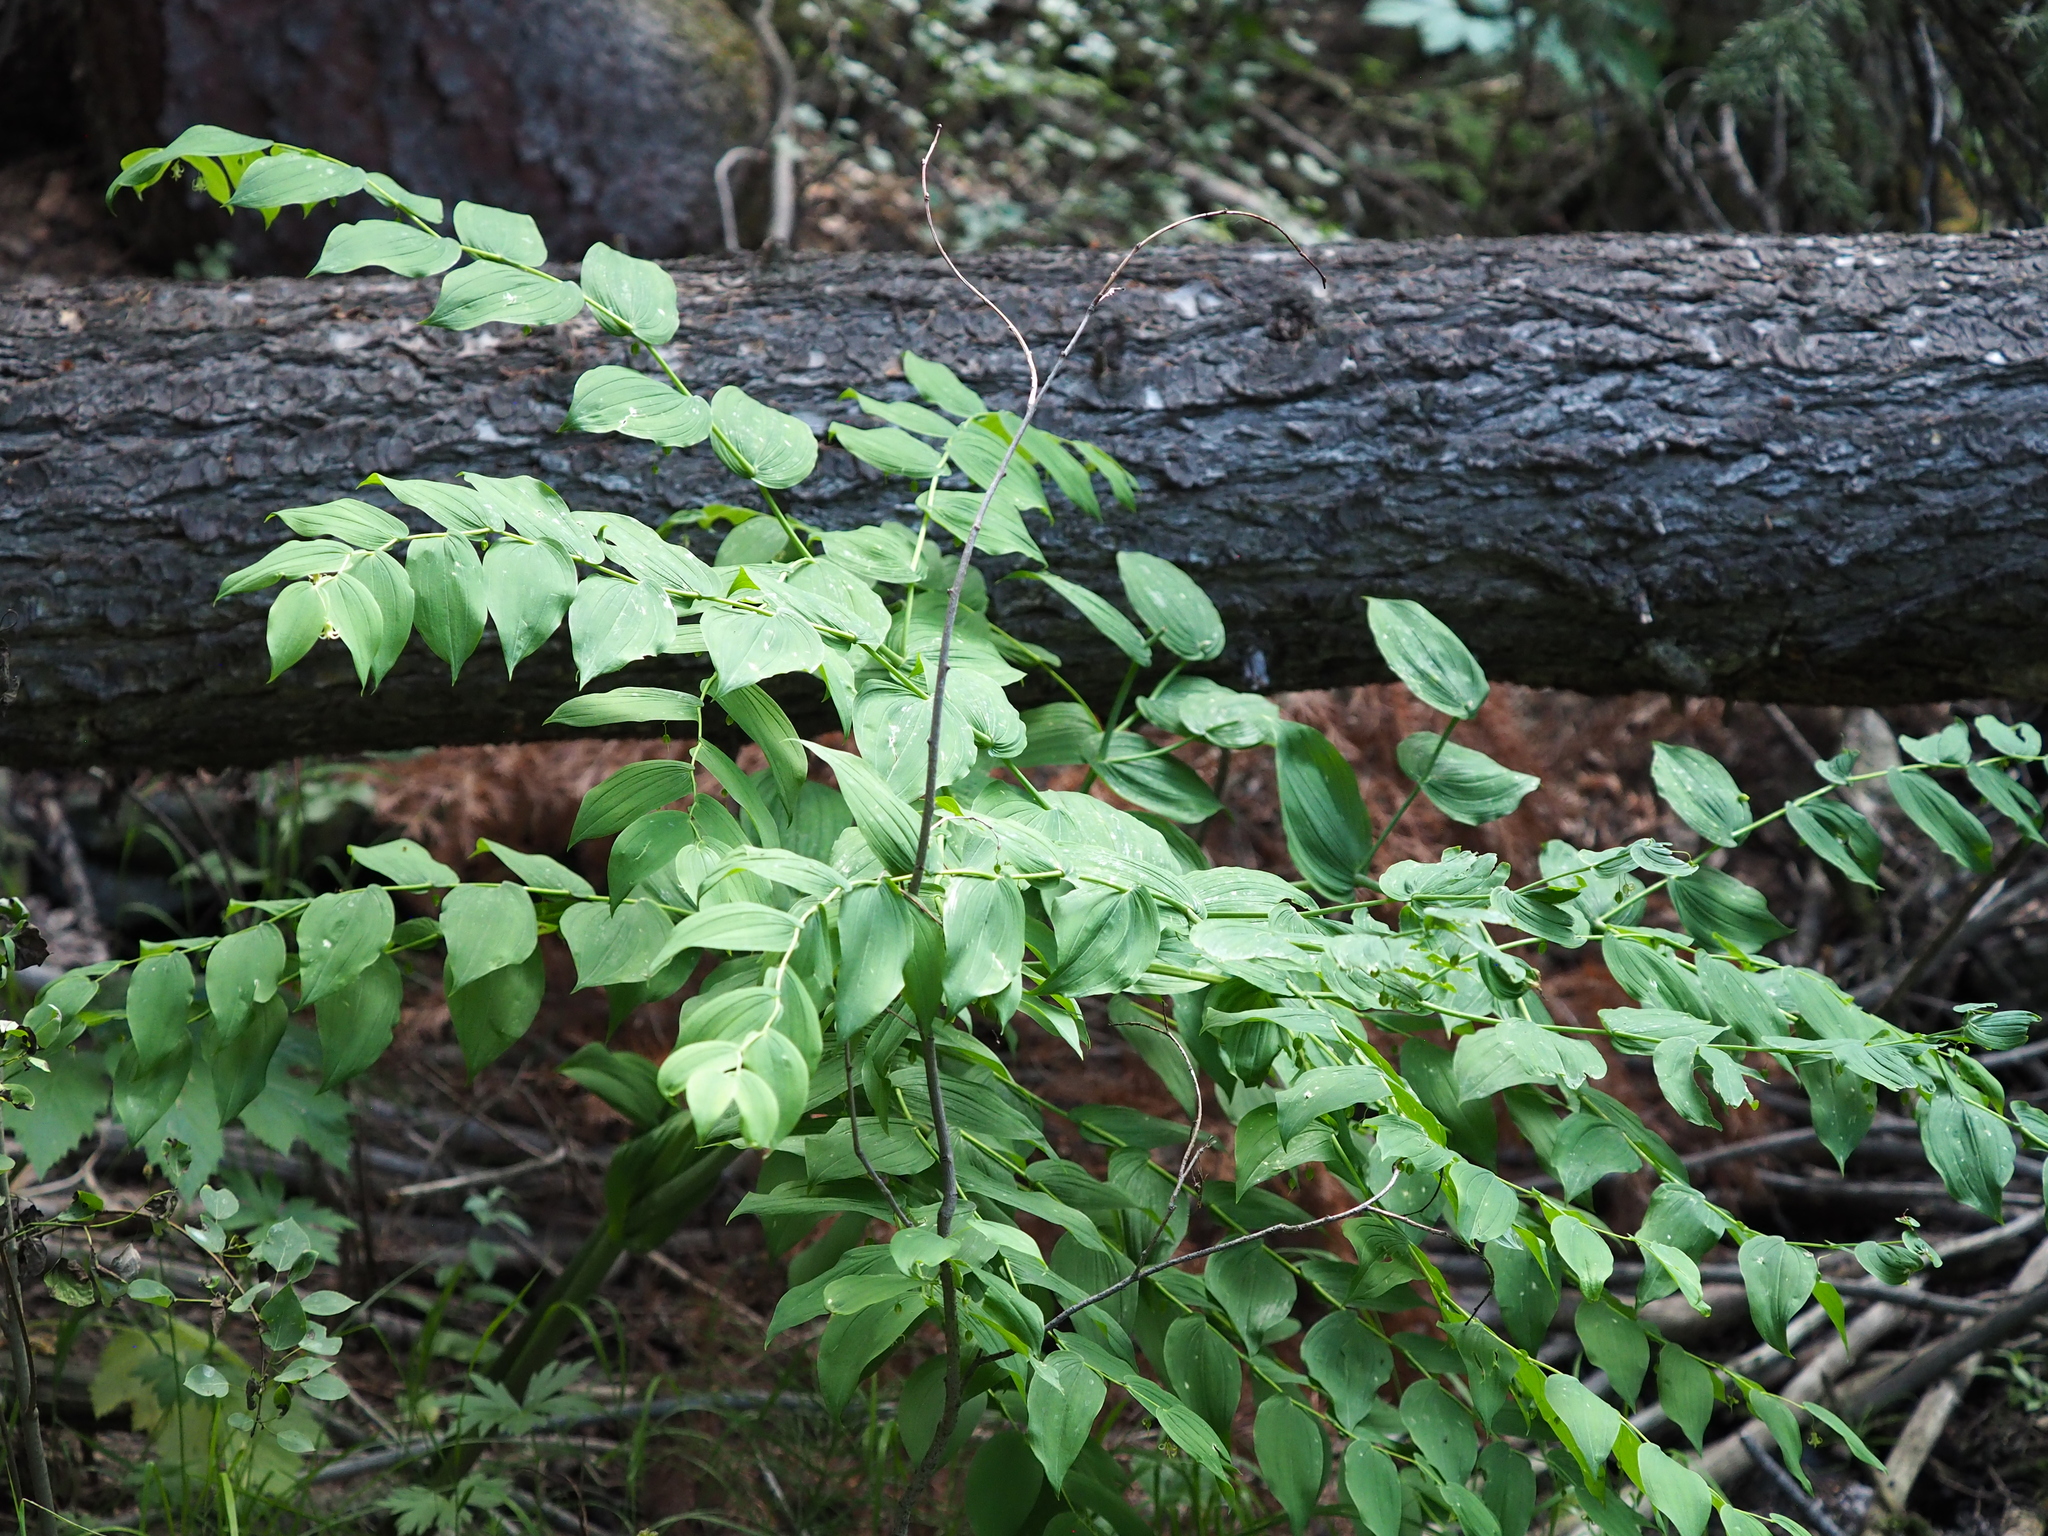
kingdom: Plantae
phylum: Tracheophyta
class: Liliopsida
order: Liliales
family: Liliaceae
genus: Streptopus
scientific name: Streptopus amplexifolius
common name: Clasp twisted stalk
